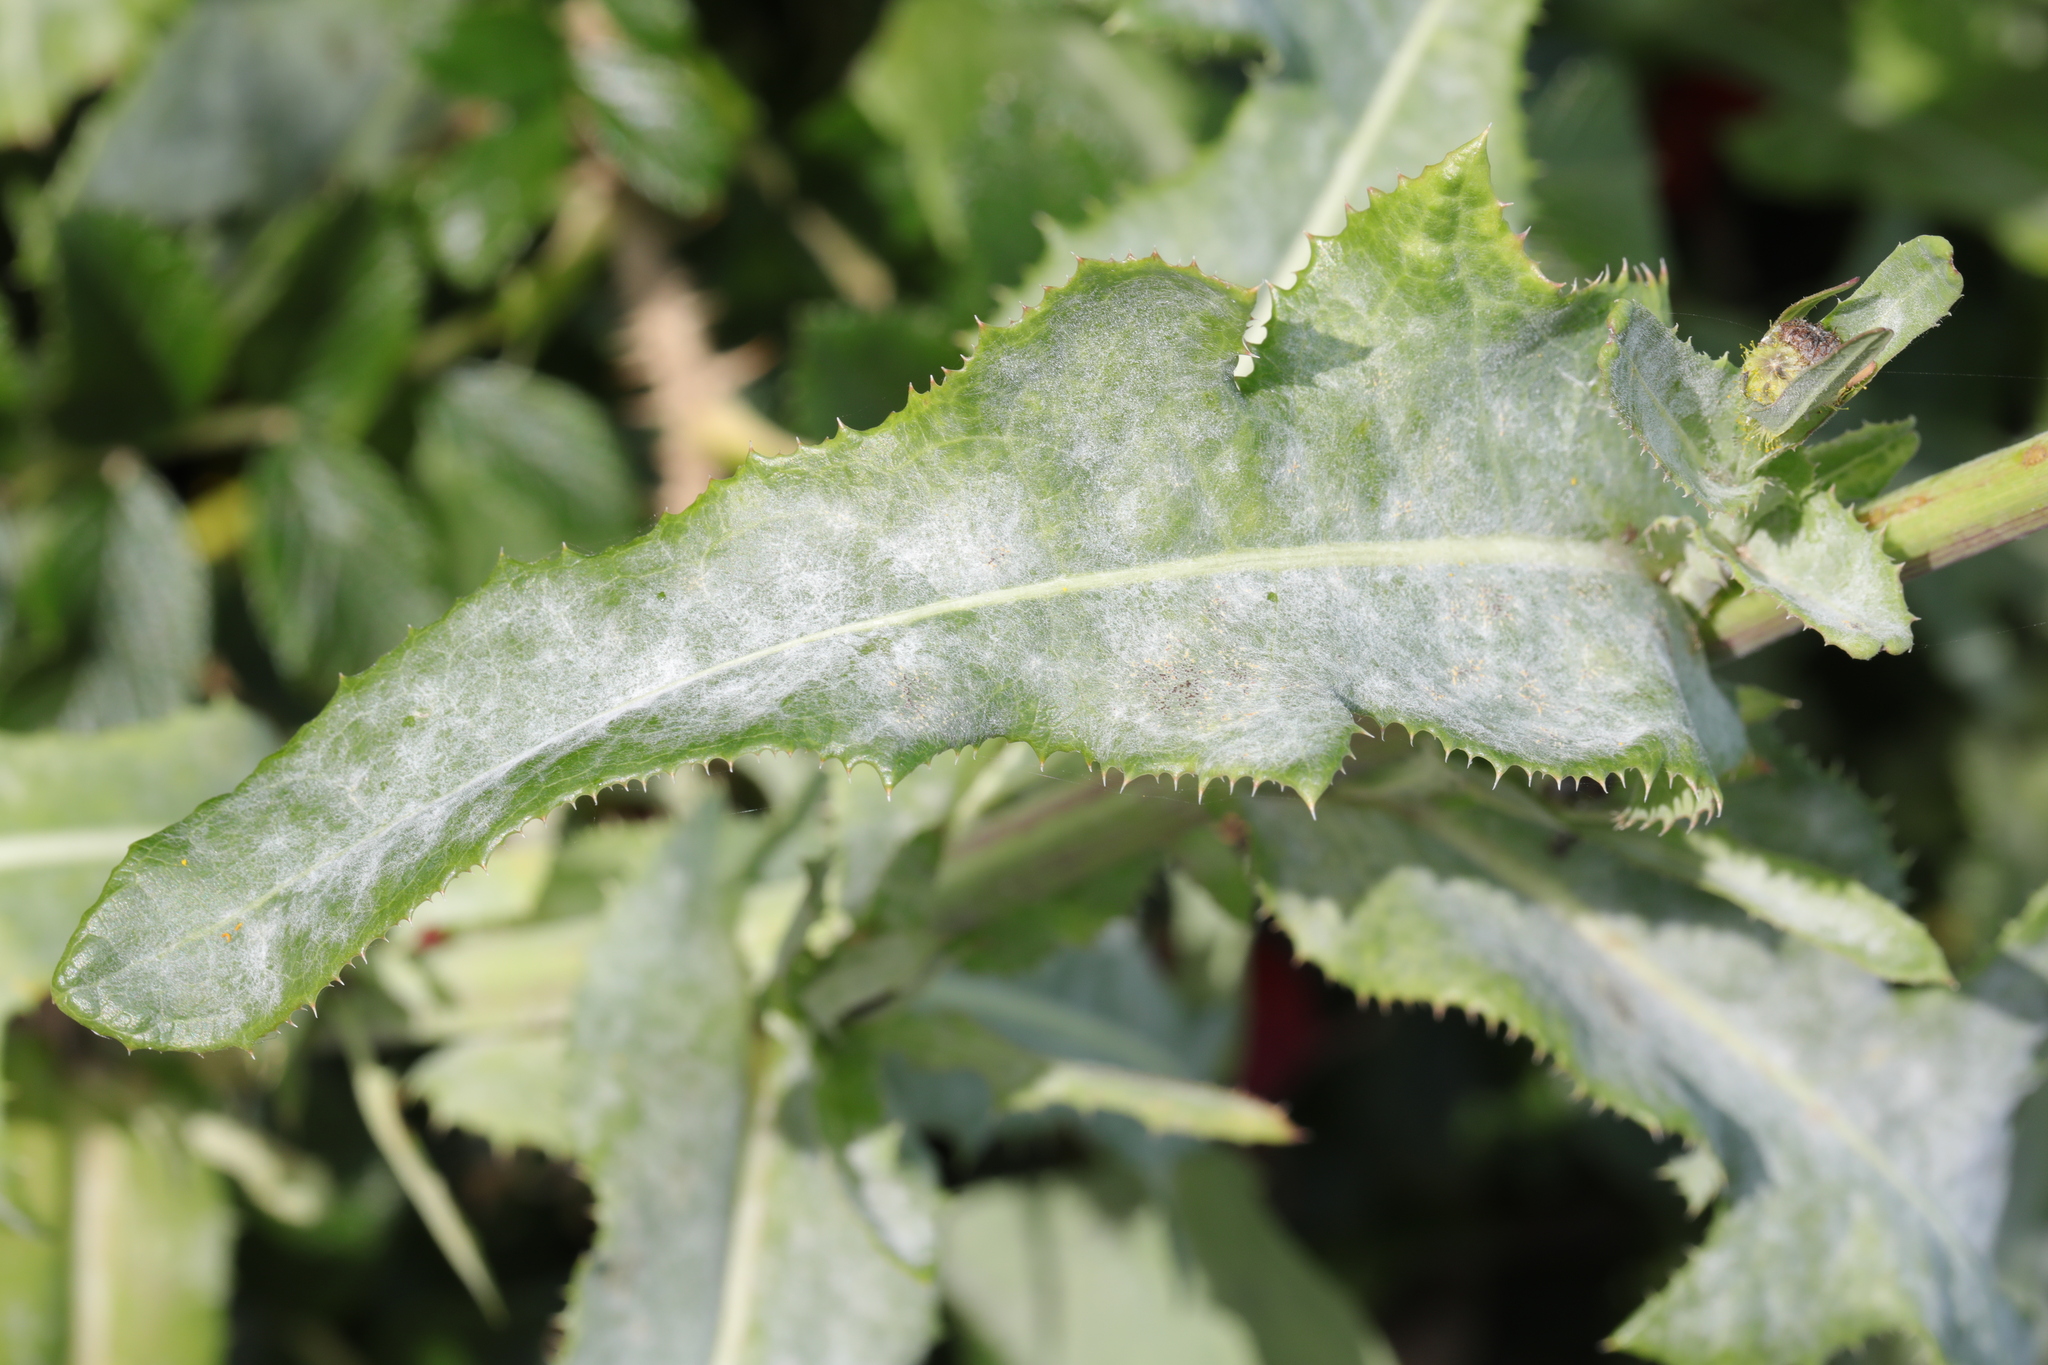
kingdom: Fungi
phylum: Ascomycota
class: Leotiomycetes
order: Helotiales
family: Erysiphaceae
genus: Golovinomyces
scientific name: Golovinomyces sonchicola
